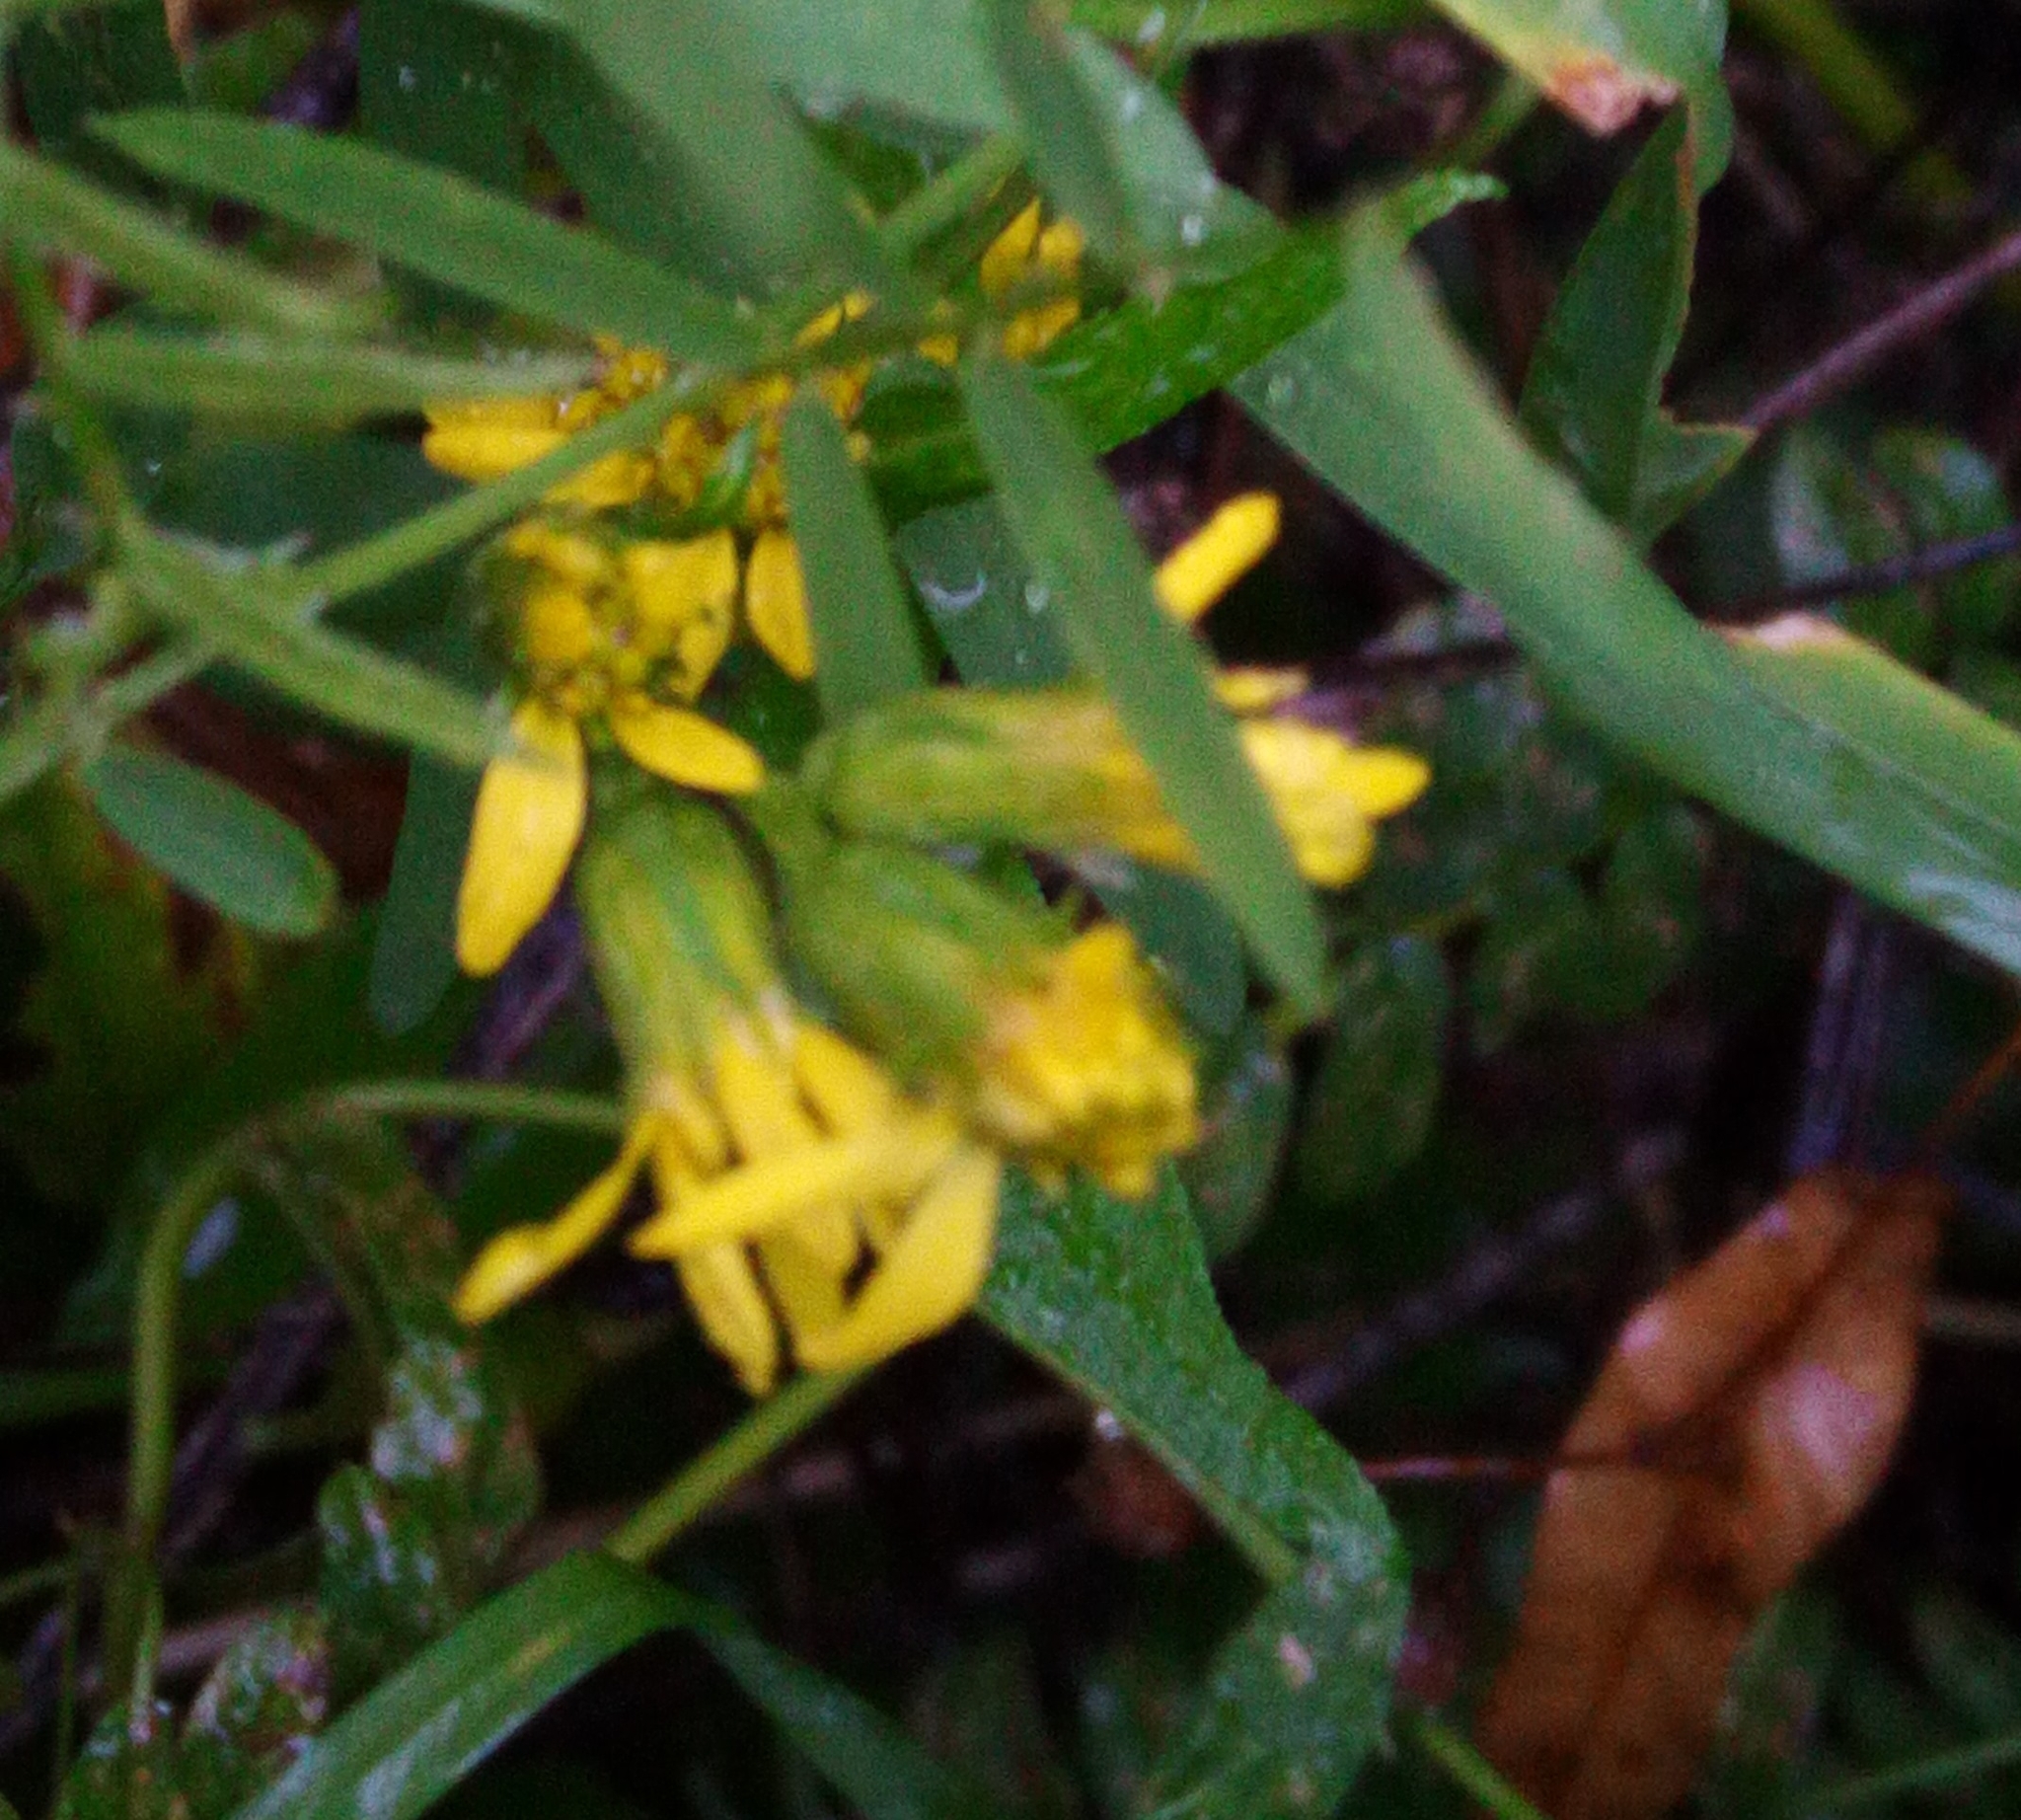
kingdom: Plantae
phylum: Tracheophyta
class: Magnoliopsida
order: Asterales
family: Asteraceae
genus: Solidago
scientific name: Solidago virgaurea
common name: Goldenrod
